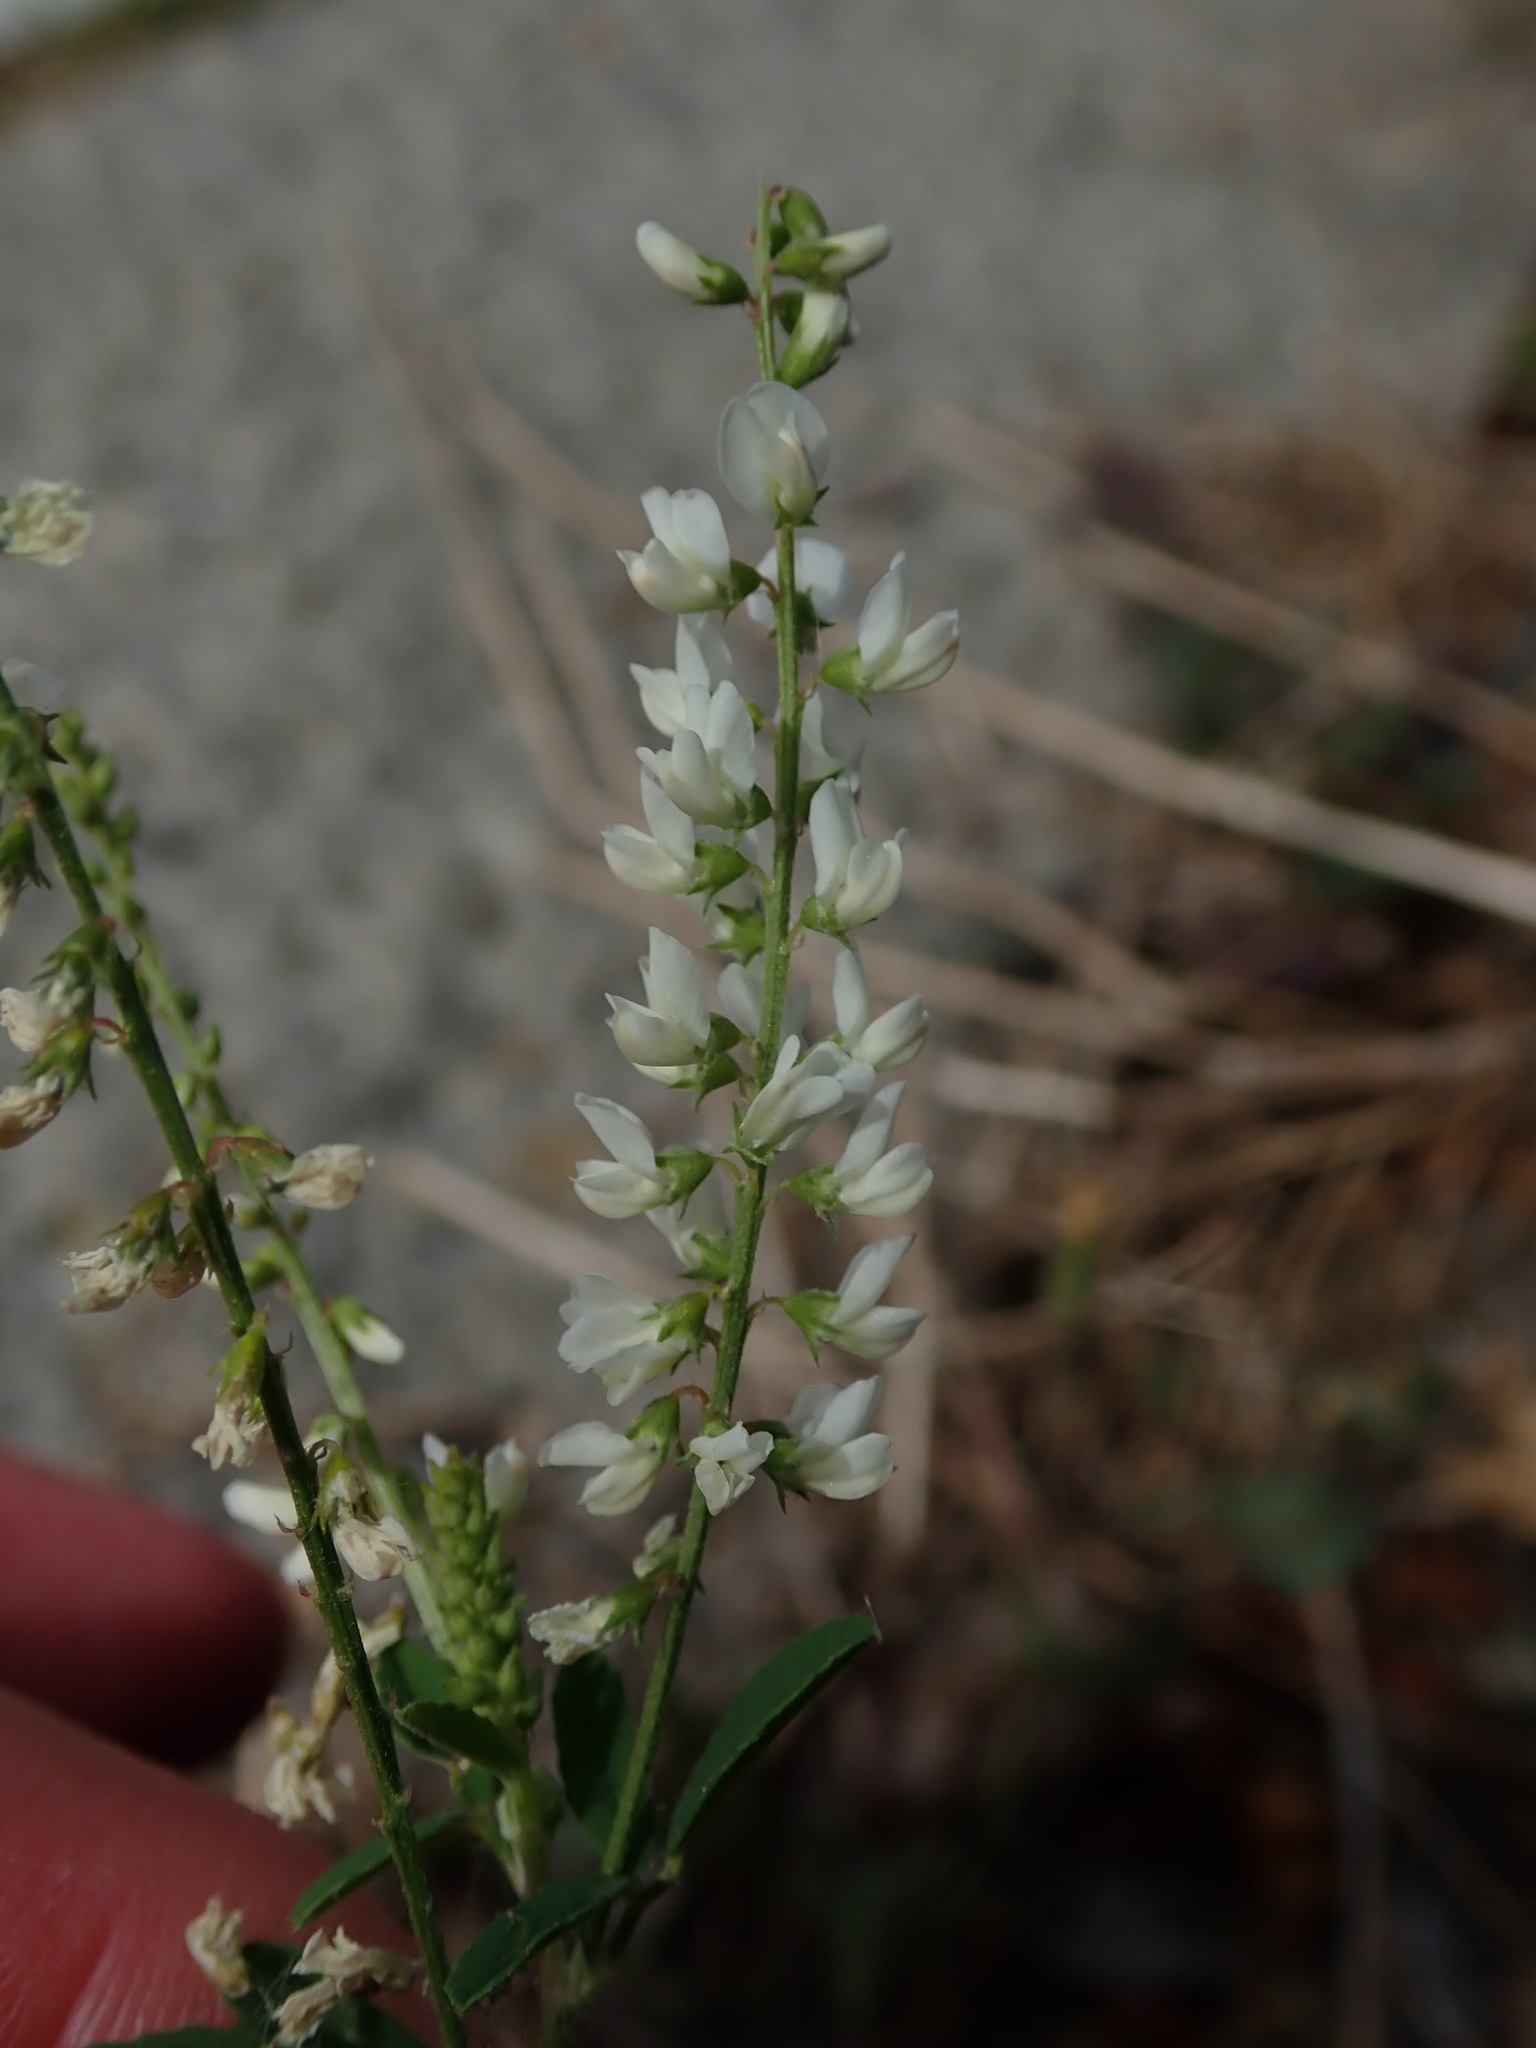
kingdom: Plantae
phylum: Tracheophyta
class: Magnoliopsida
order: Fabales
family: Fabaceae
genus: Melilotus
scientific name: Melilotus albus
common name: White melilot
